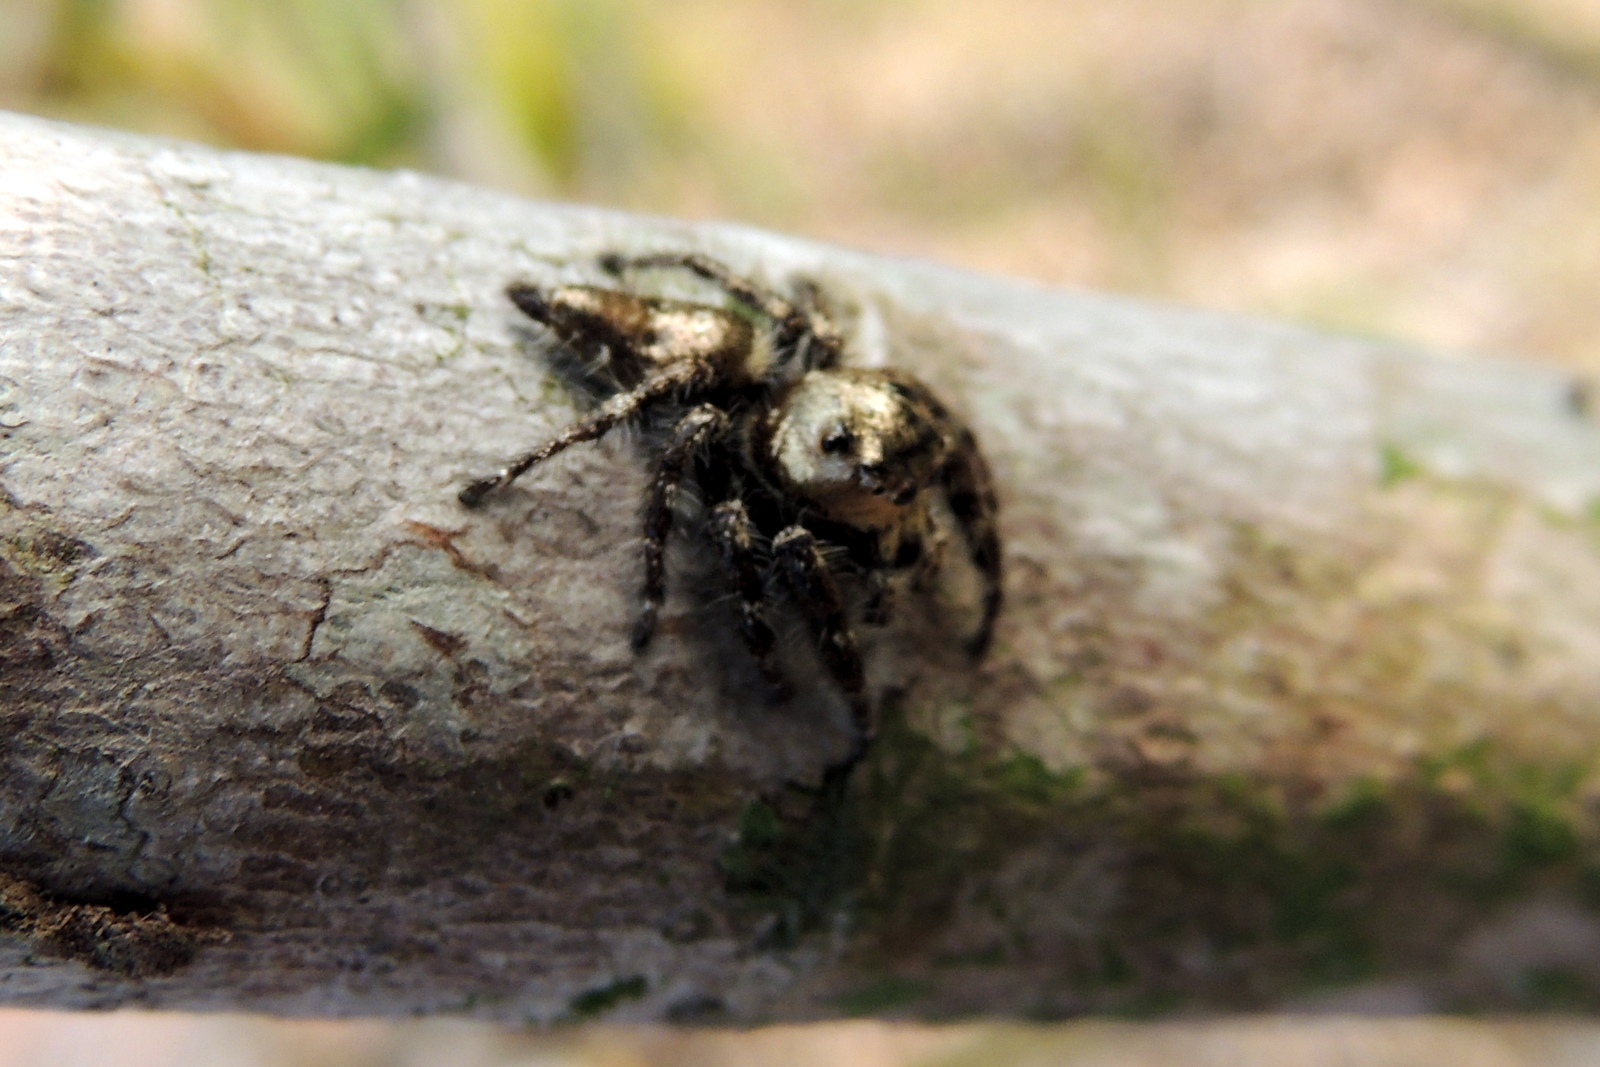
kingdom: Animalia
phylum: Arthropoda
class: Arachnida
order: Araneae
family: Salticidae
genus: Hyllus
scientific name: Hyllus semicupreus
